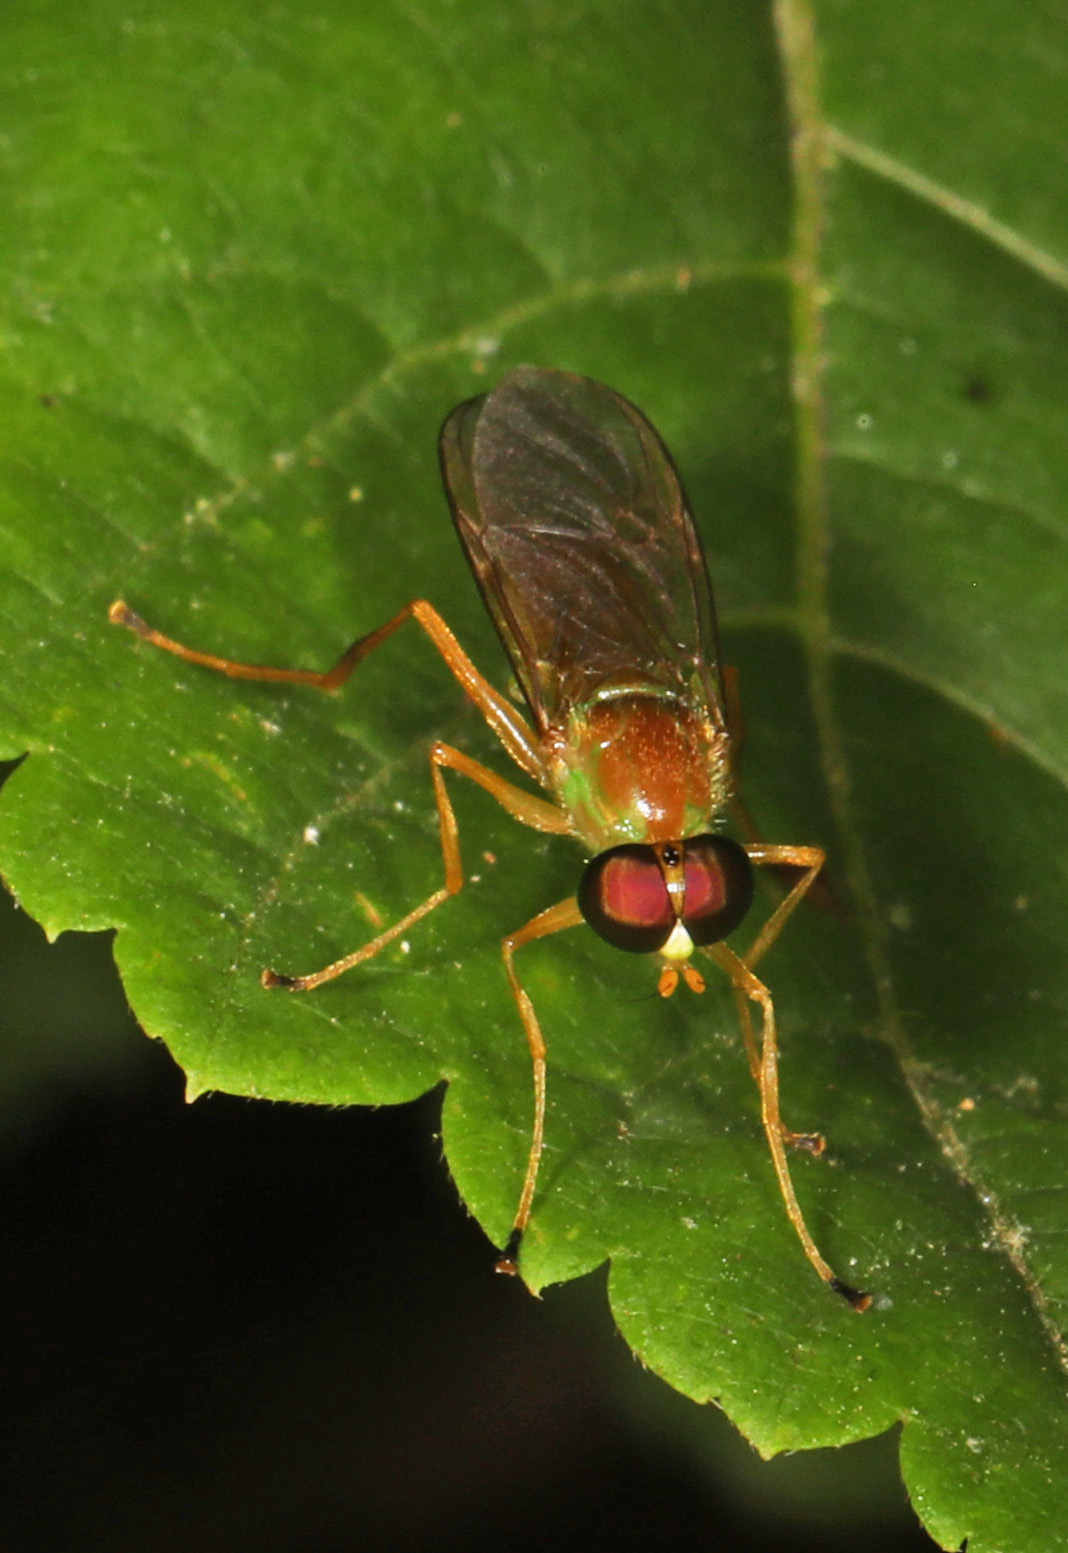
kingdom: Animalia
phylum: Arthropoda
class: Insecta
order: Diptera
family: Stratiomyidae
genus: Ptecticus
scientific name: Ptecticus trivittatus
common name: Compost fly
